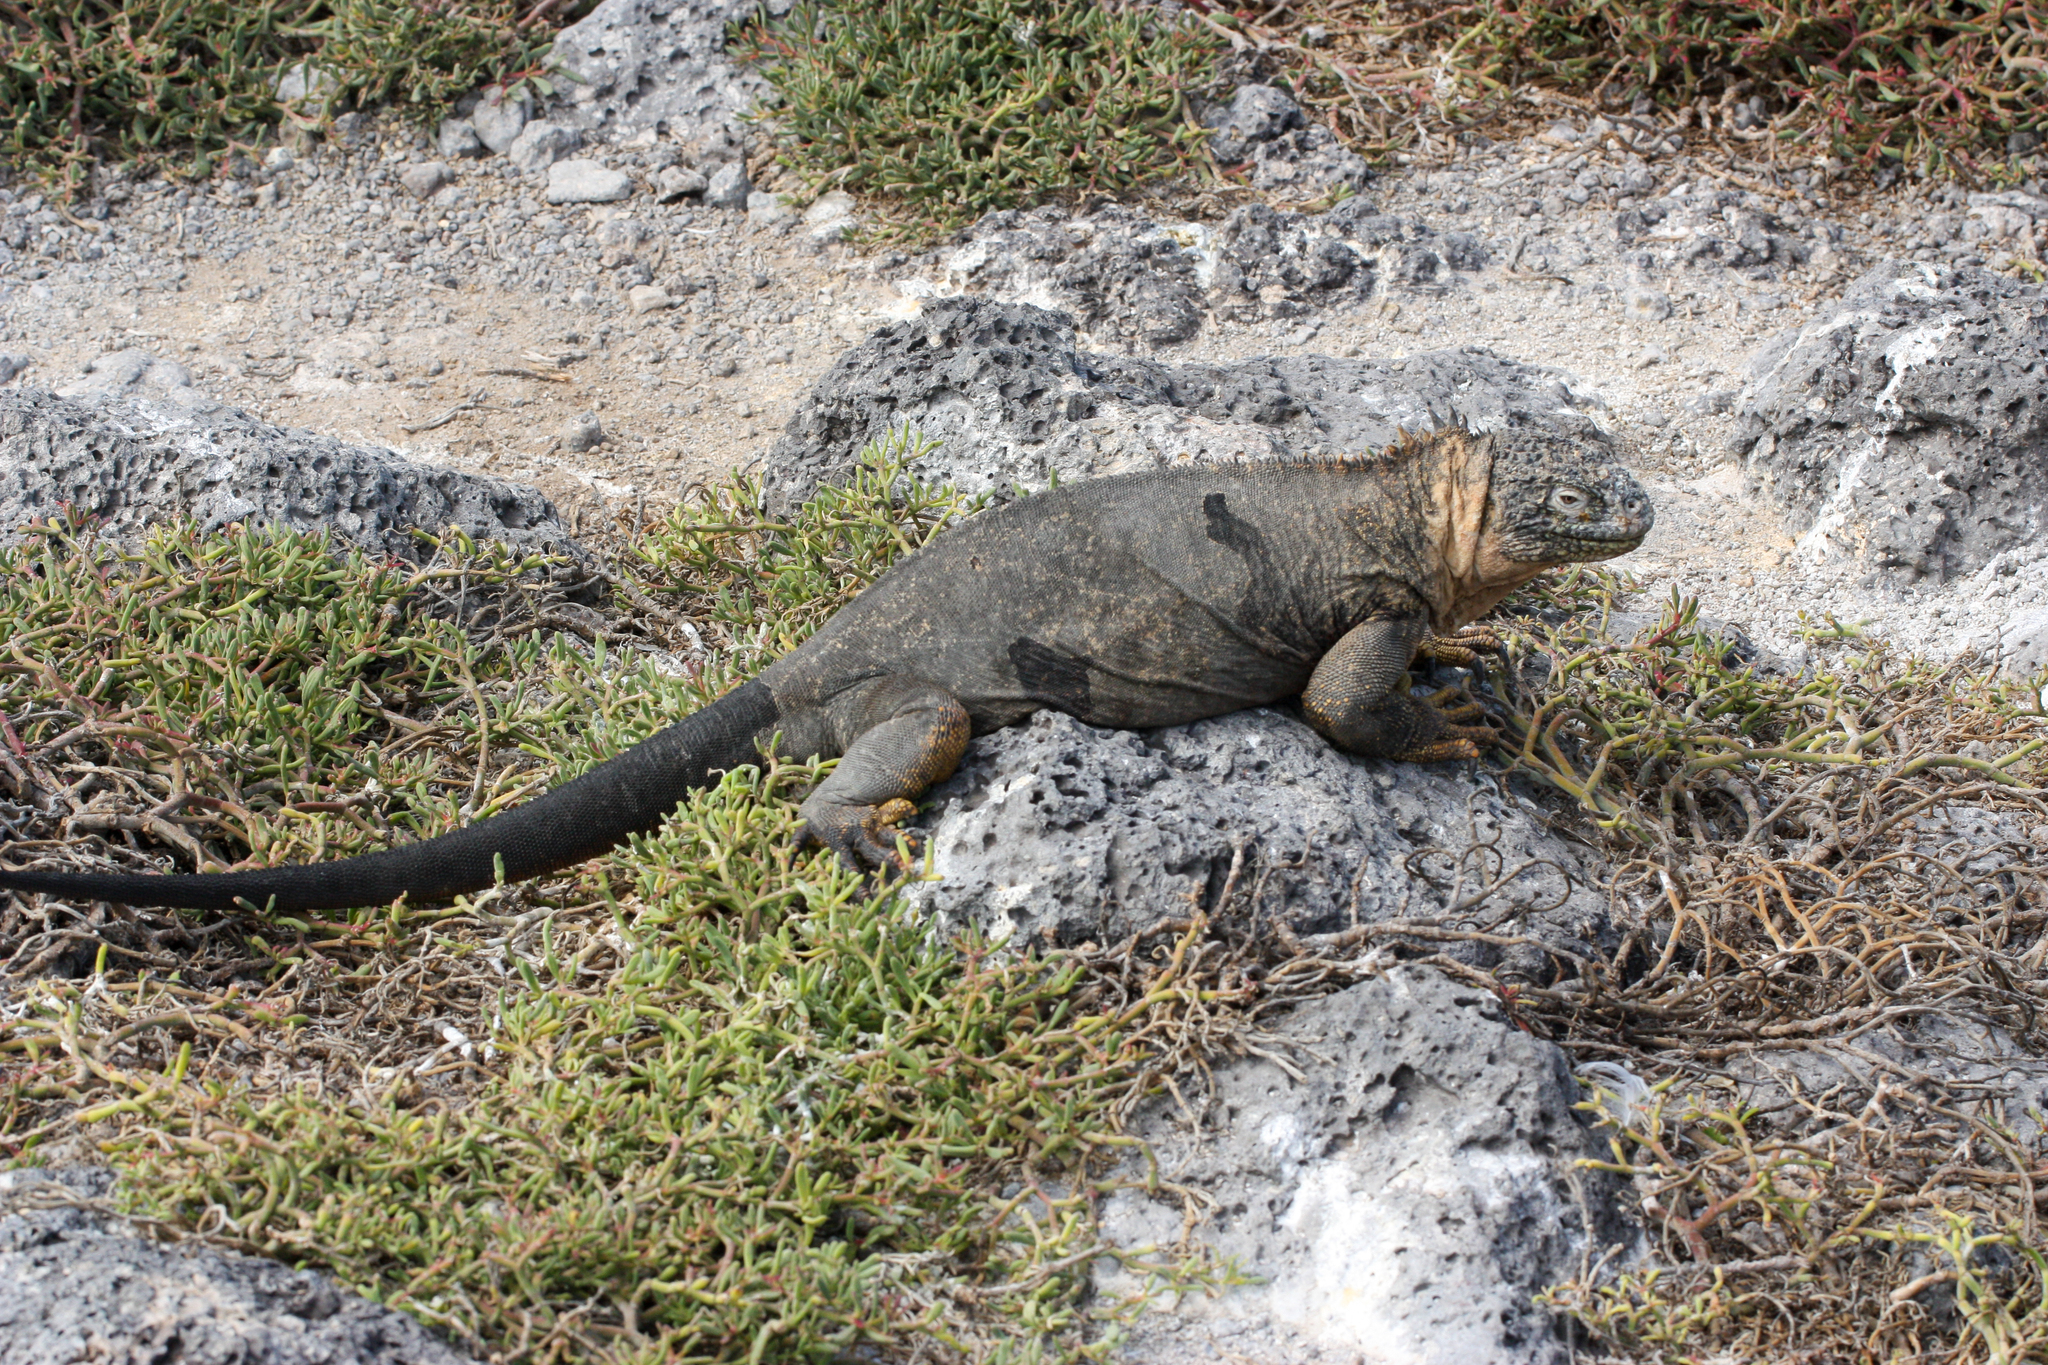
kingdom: Animalia
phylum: Chordata
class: Squamata
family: Iguanidae
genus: Conolophus
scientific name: Conolophus subcristatus
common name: Galapagos land iguana
